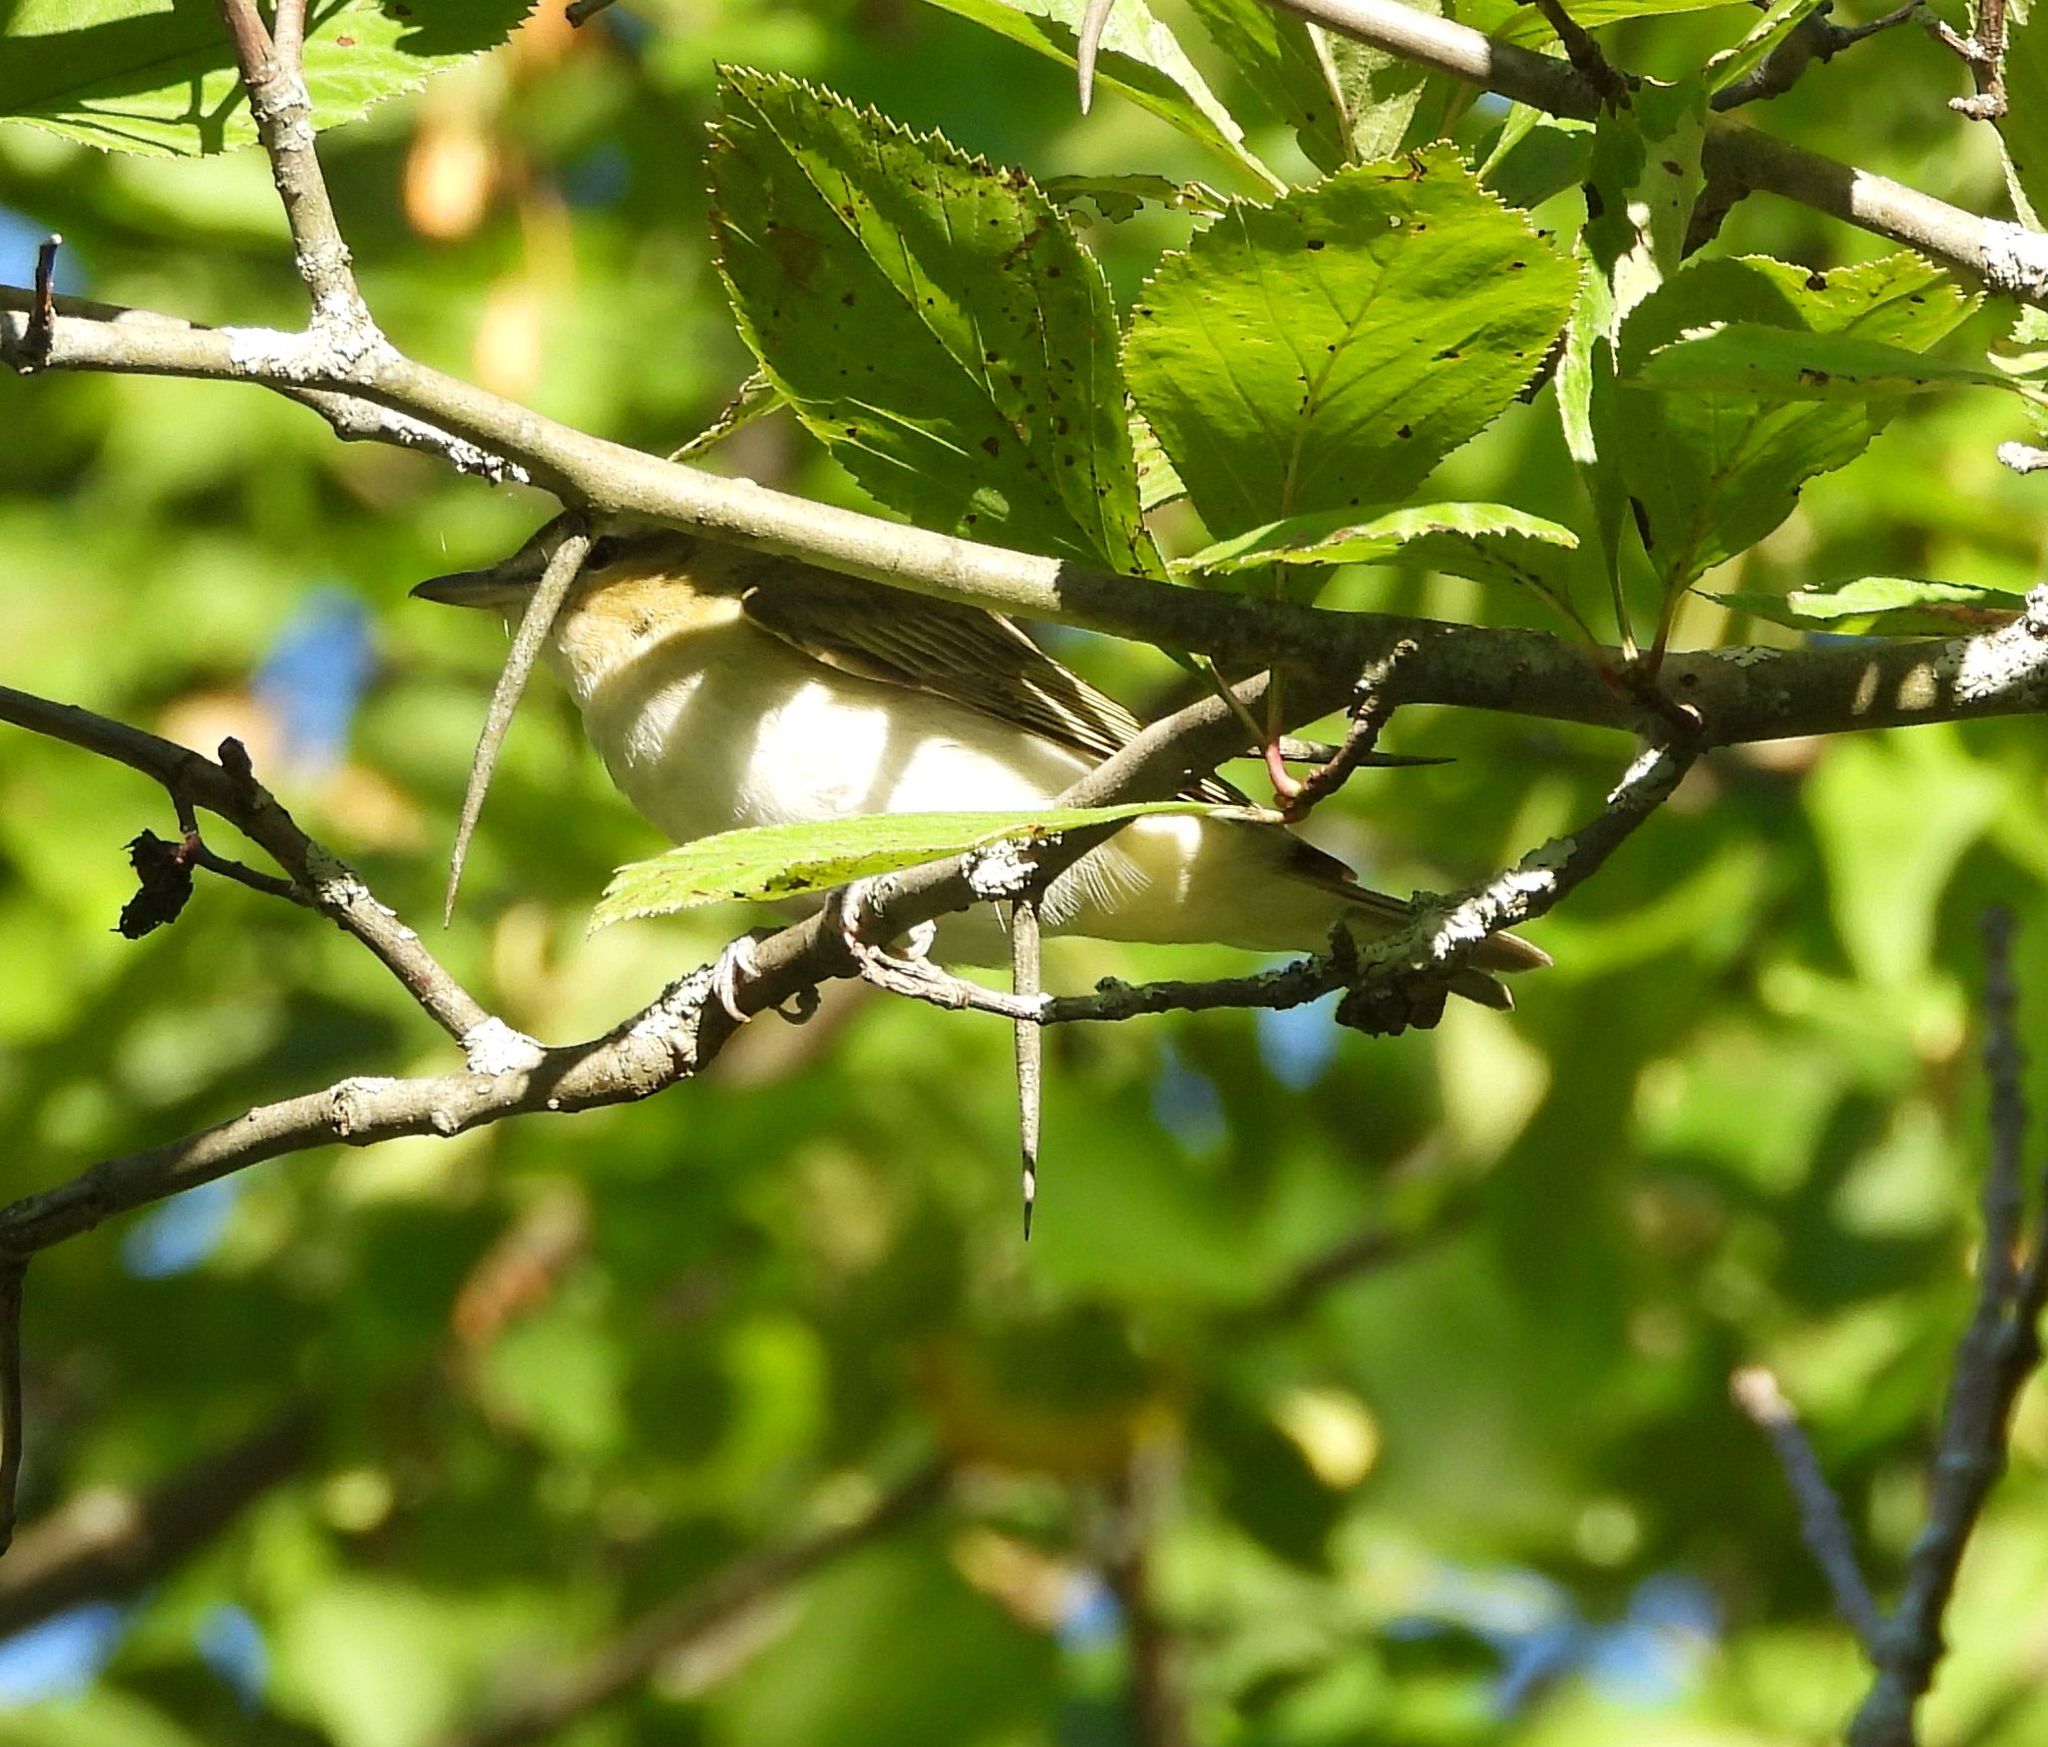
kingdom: Animalia
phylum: Chordata
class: Aves
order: Passeriformes
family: Vireonidae
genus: Vireo
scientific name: Vireo olivaceus
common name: Red-eyed vireo
